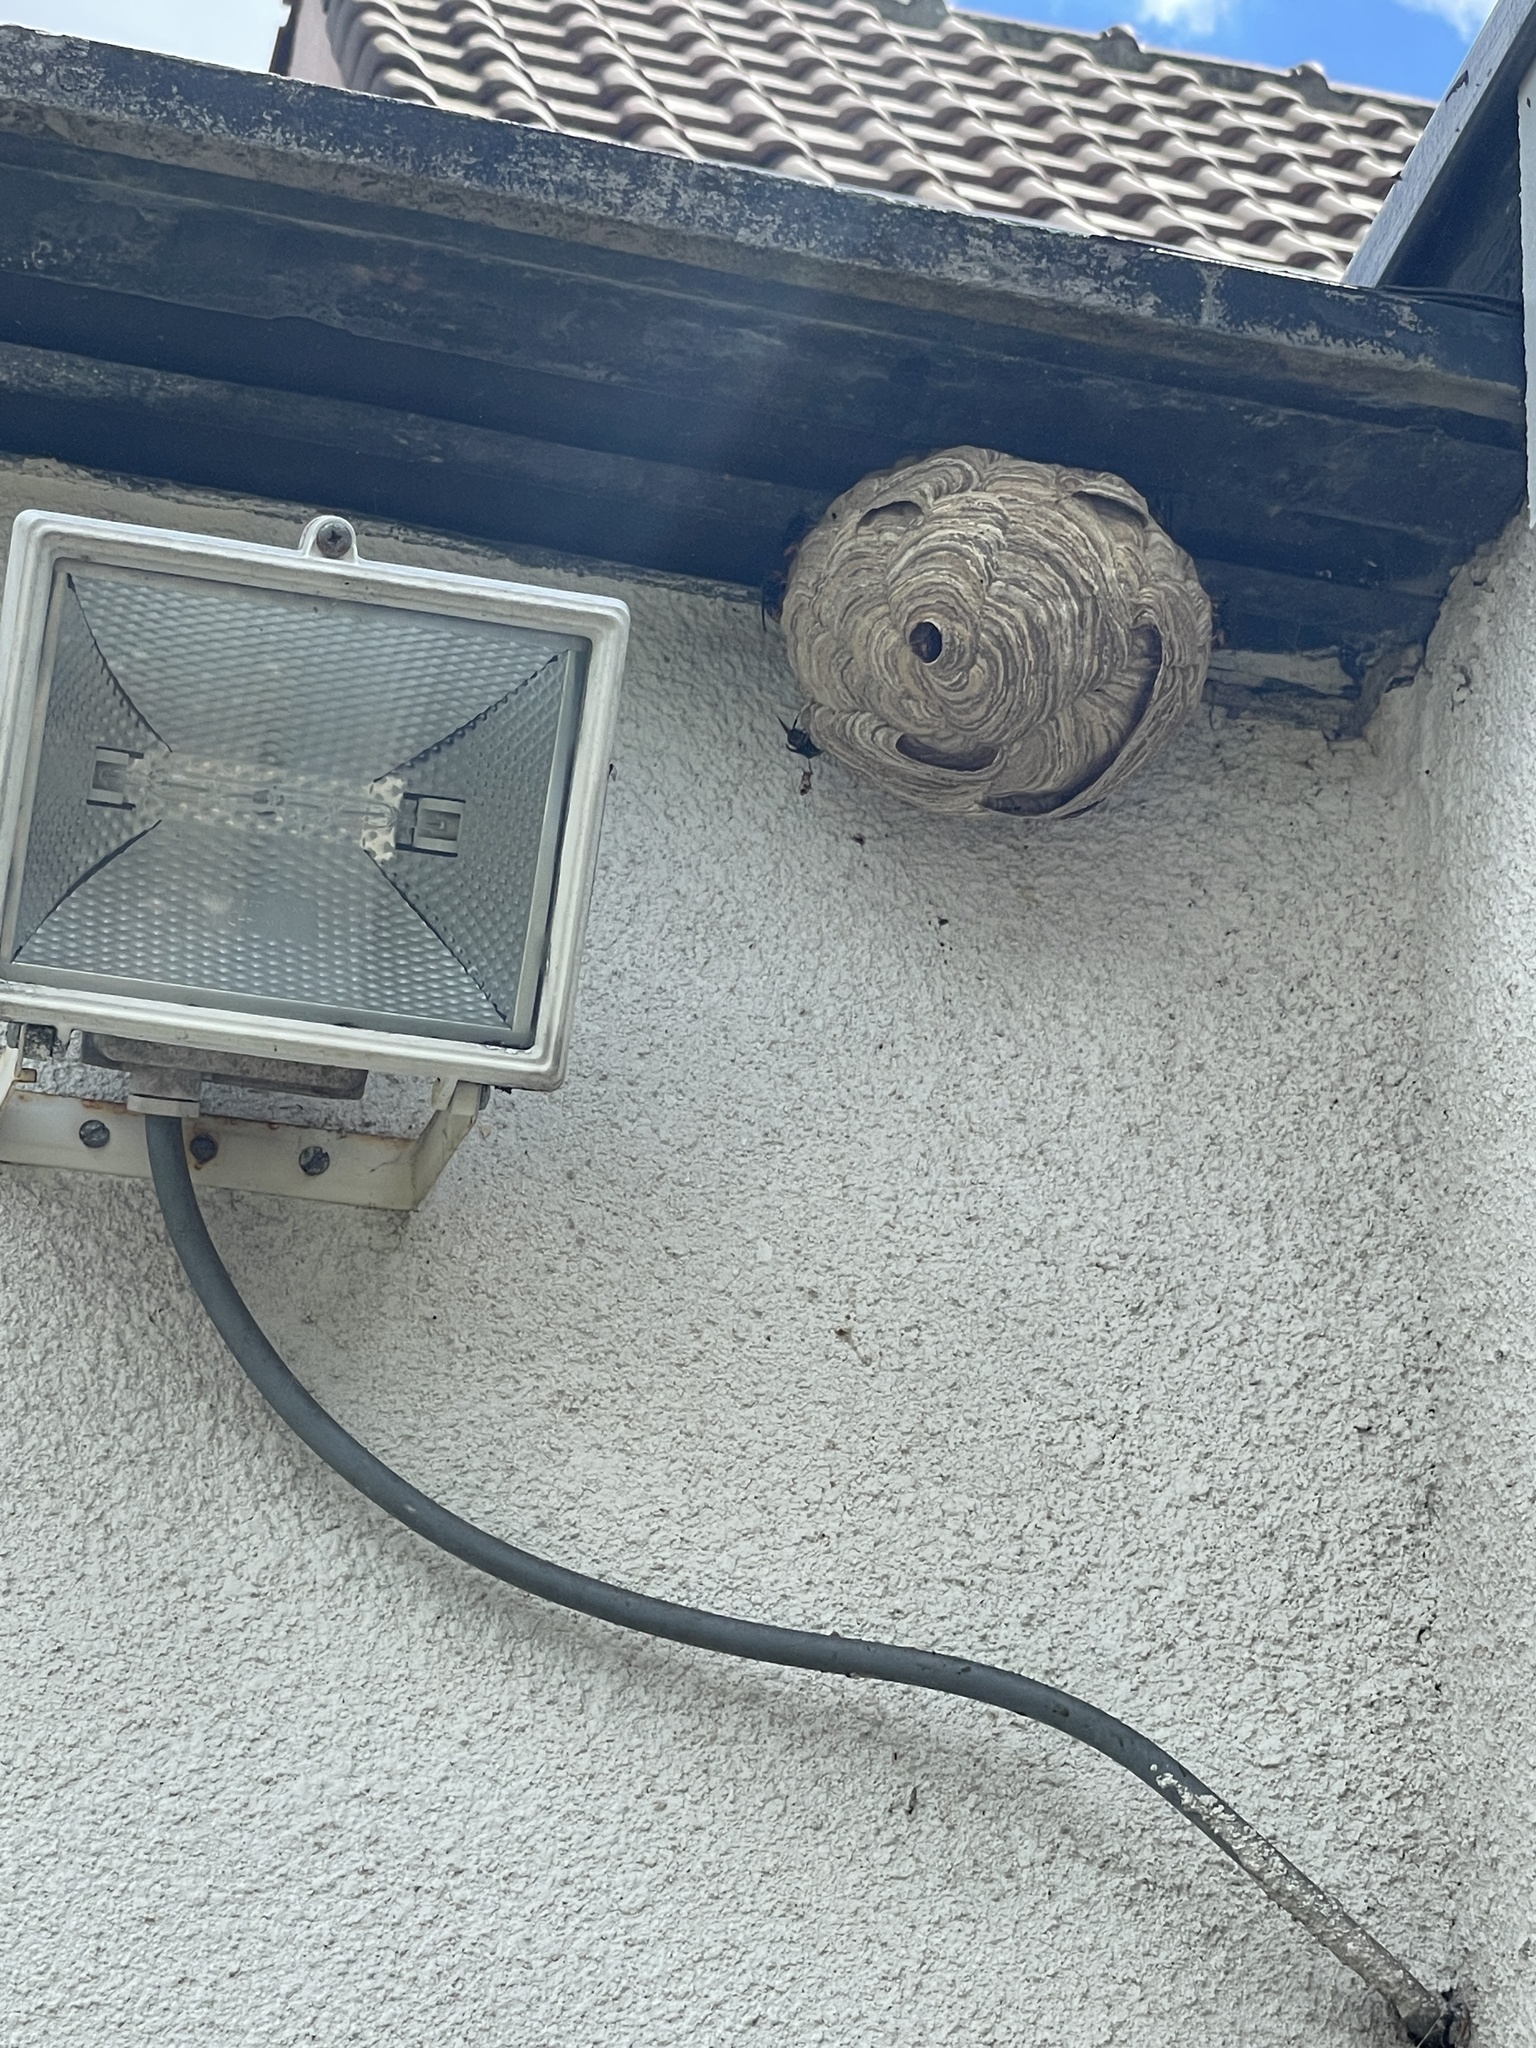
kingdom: Animalia
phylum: Arthropoda
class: Insecta
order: Hymenoptera
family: Vespidae
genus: Vespa
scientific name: Vespa velutina
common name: Asian hornet
